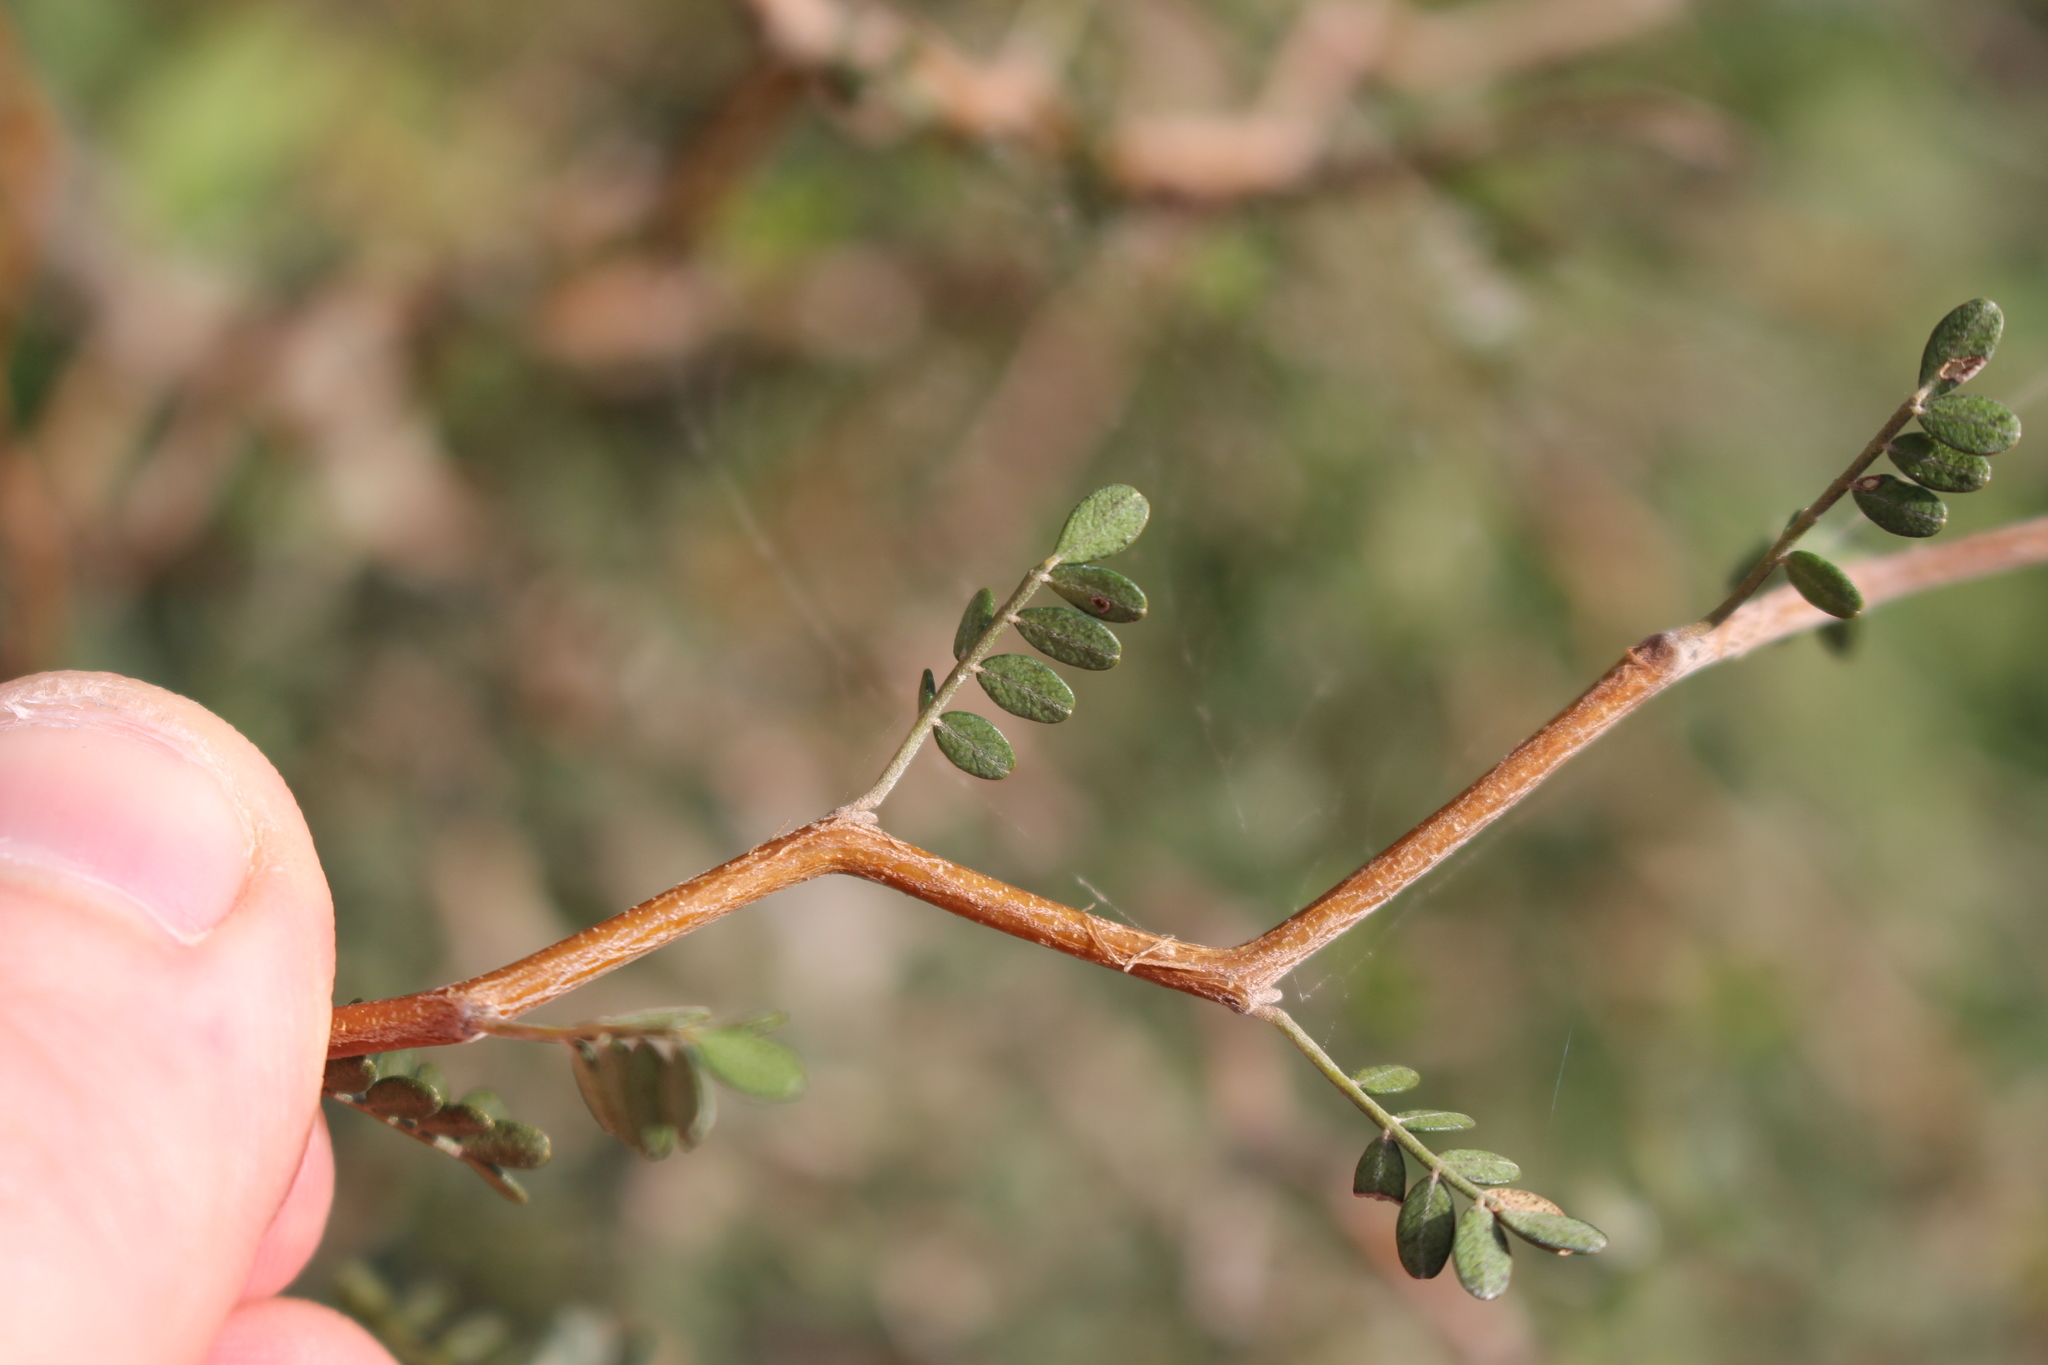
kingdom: Plantae
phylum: Tracheophyta
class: Magnoliopsida
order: Fabales
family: Fabaceae
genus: Sophora
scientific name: Sophora prostrata
